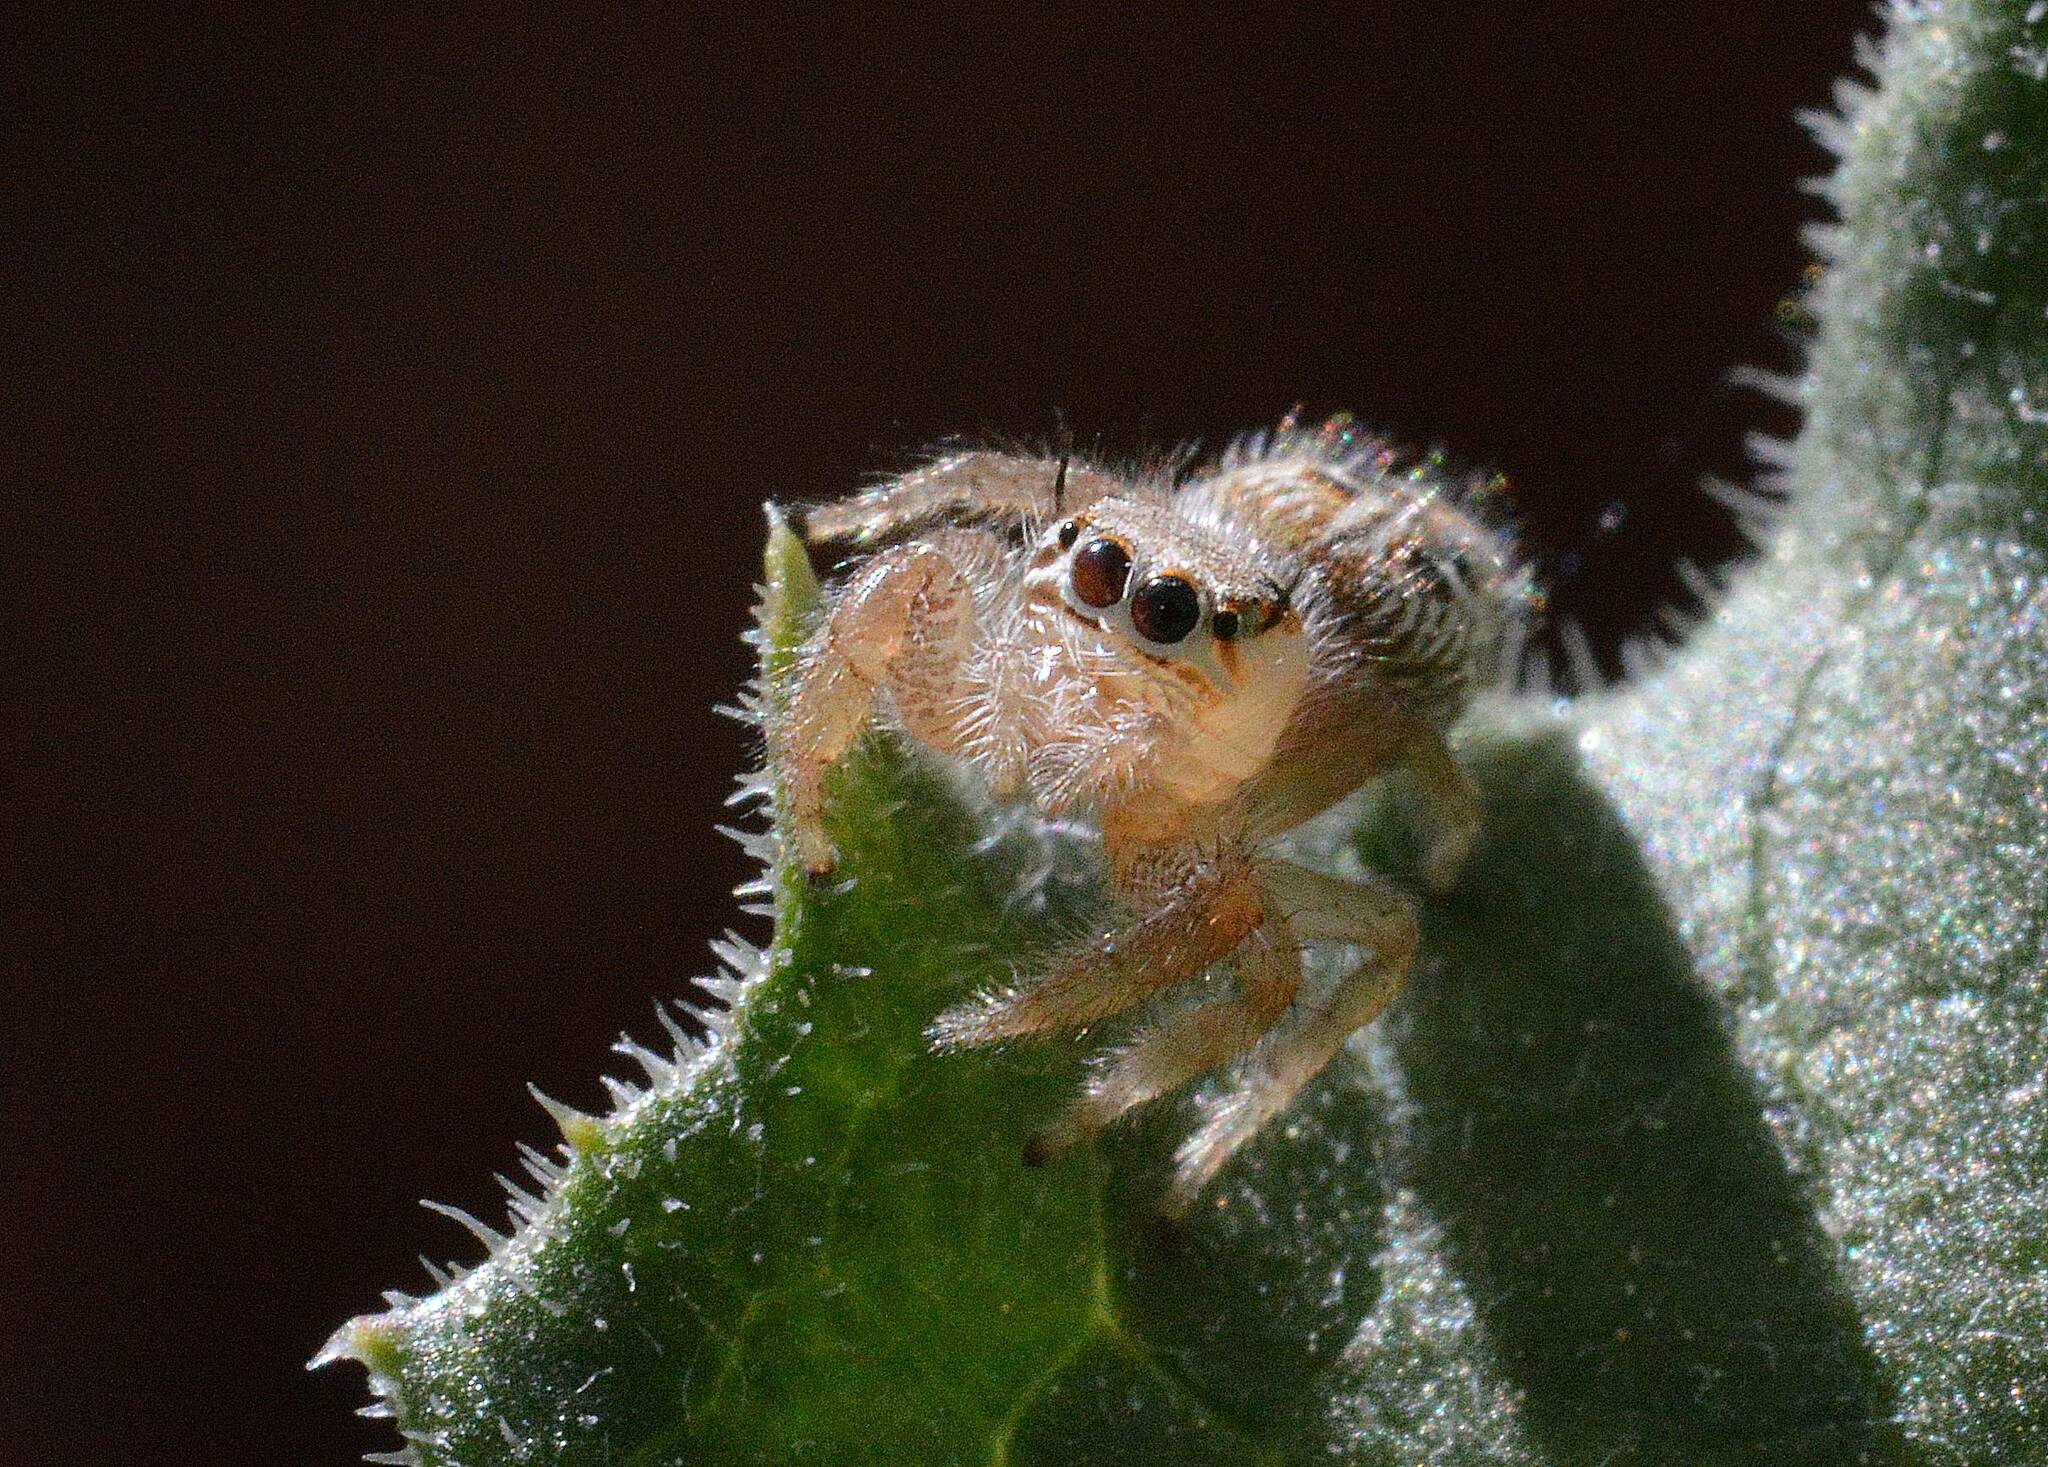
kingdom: Animalia
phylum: Arthropoda
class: Arachnida
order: Araneae
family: Salticidae
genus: Thyene
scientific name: Thyene imperialis
